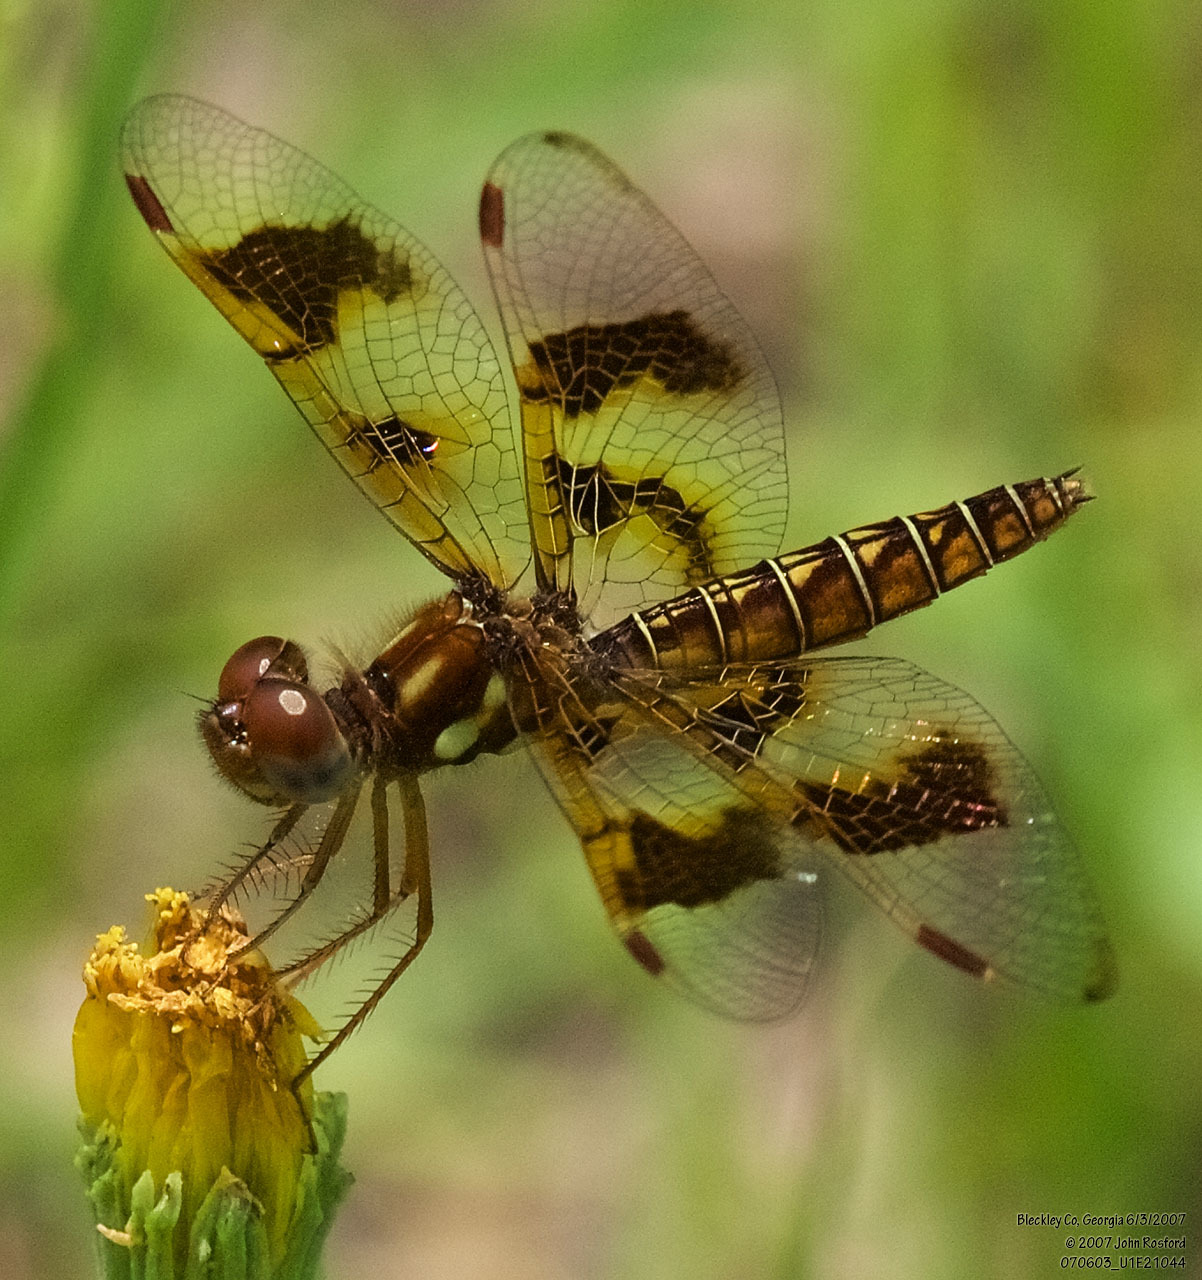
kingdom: Animalia
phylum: Arthropoda
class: Insecta
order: Odonata
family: Libellulidae
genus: Perithemis
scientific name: Perithemis tenera
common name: Eastern amberwing
